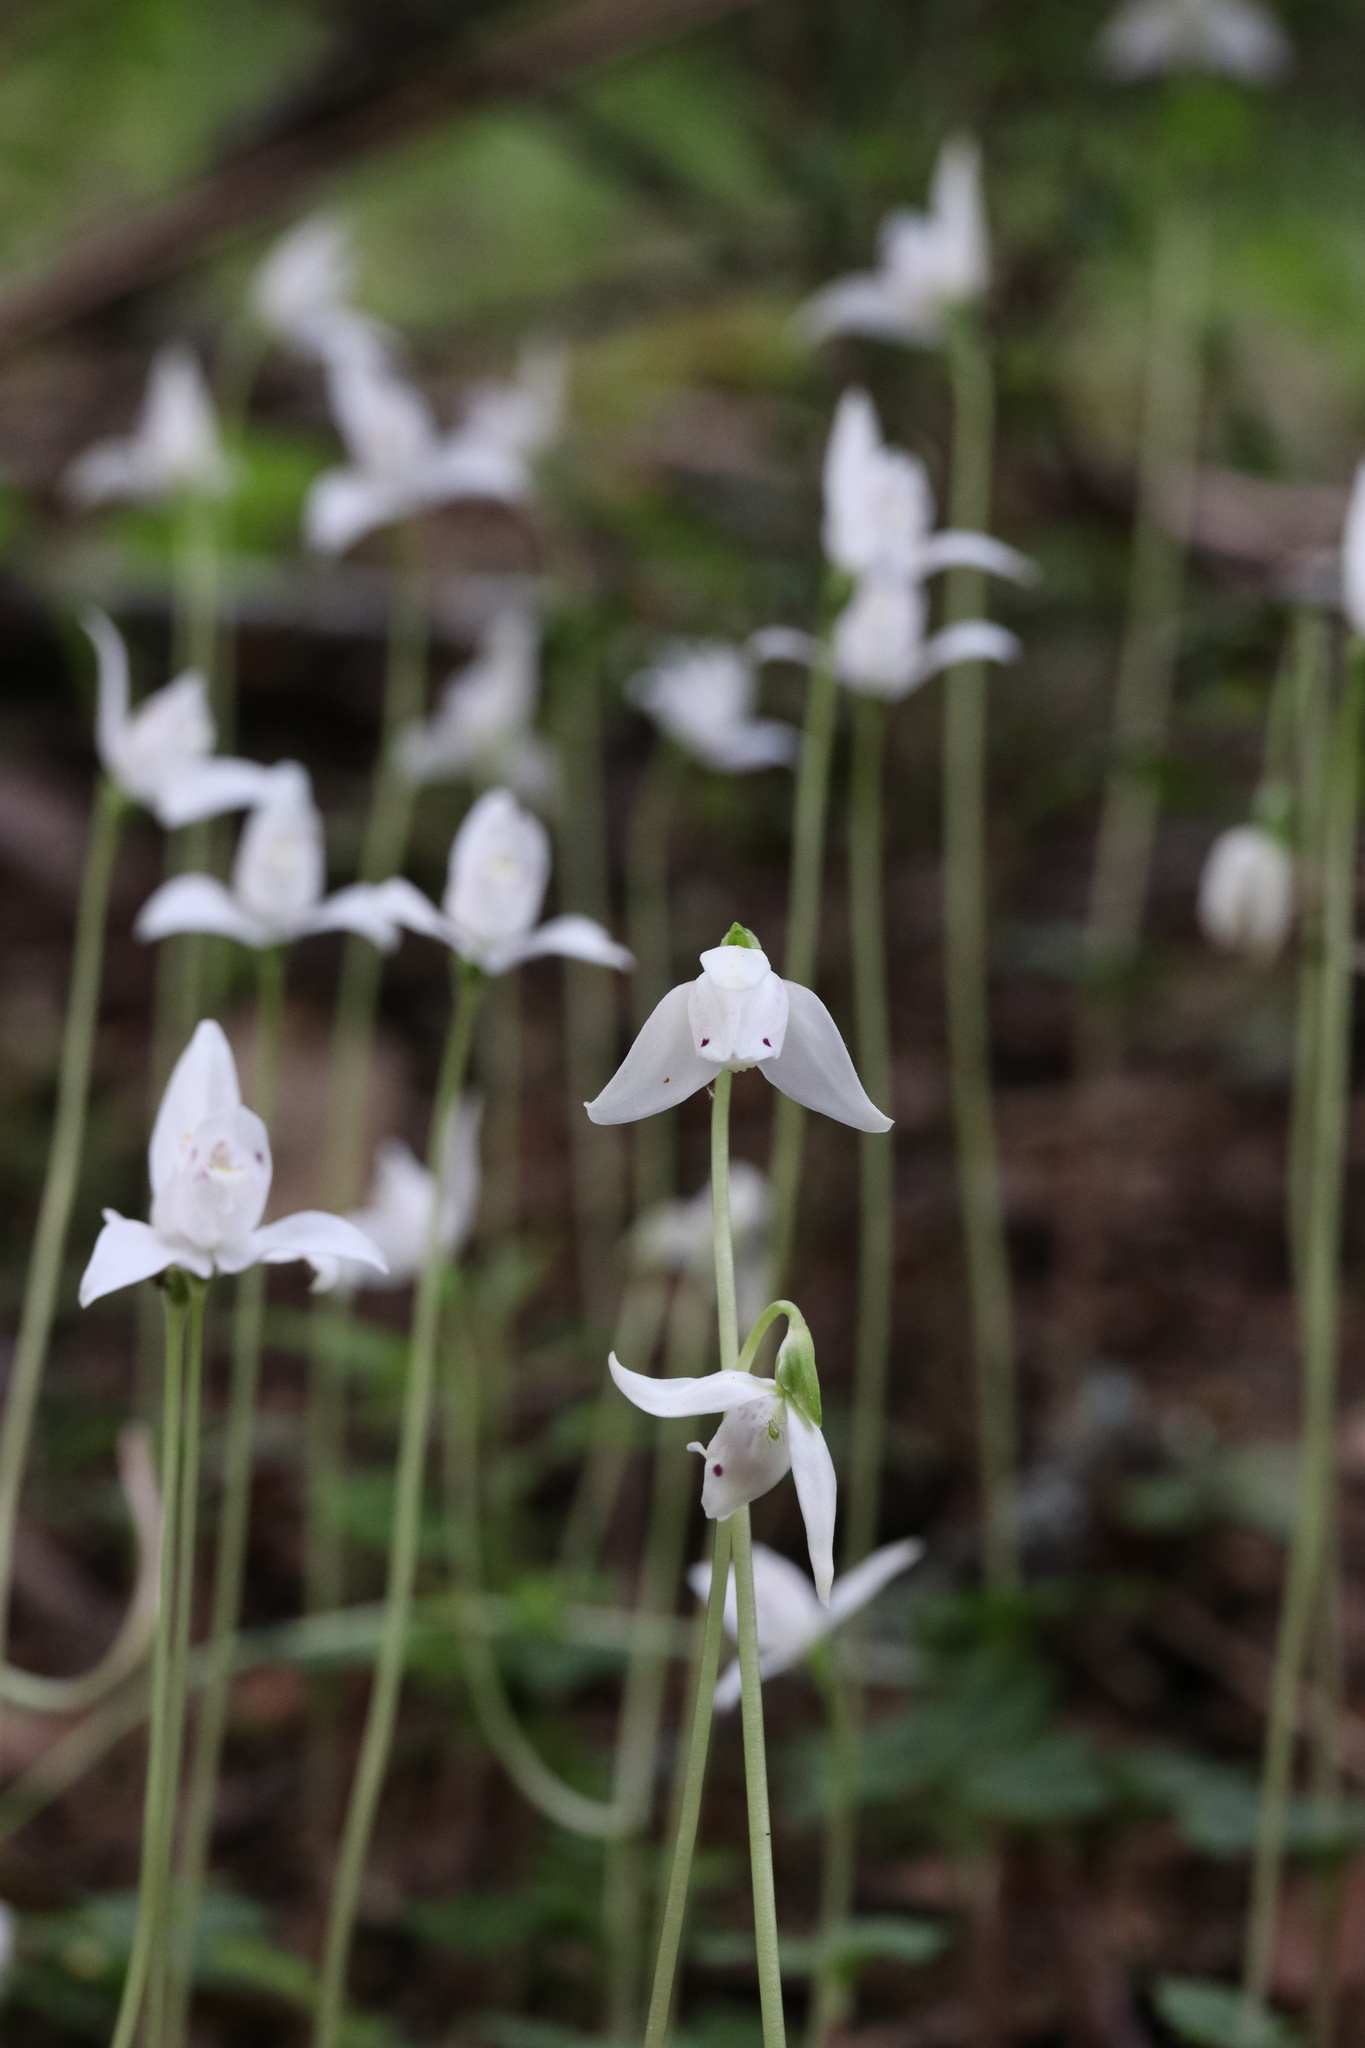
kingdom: Plantae
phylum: Tracheophyta
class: Liliopsida
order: Asparagales
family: Orchidaceae
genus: Codonorchis
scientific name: Codonorchis lessonii
